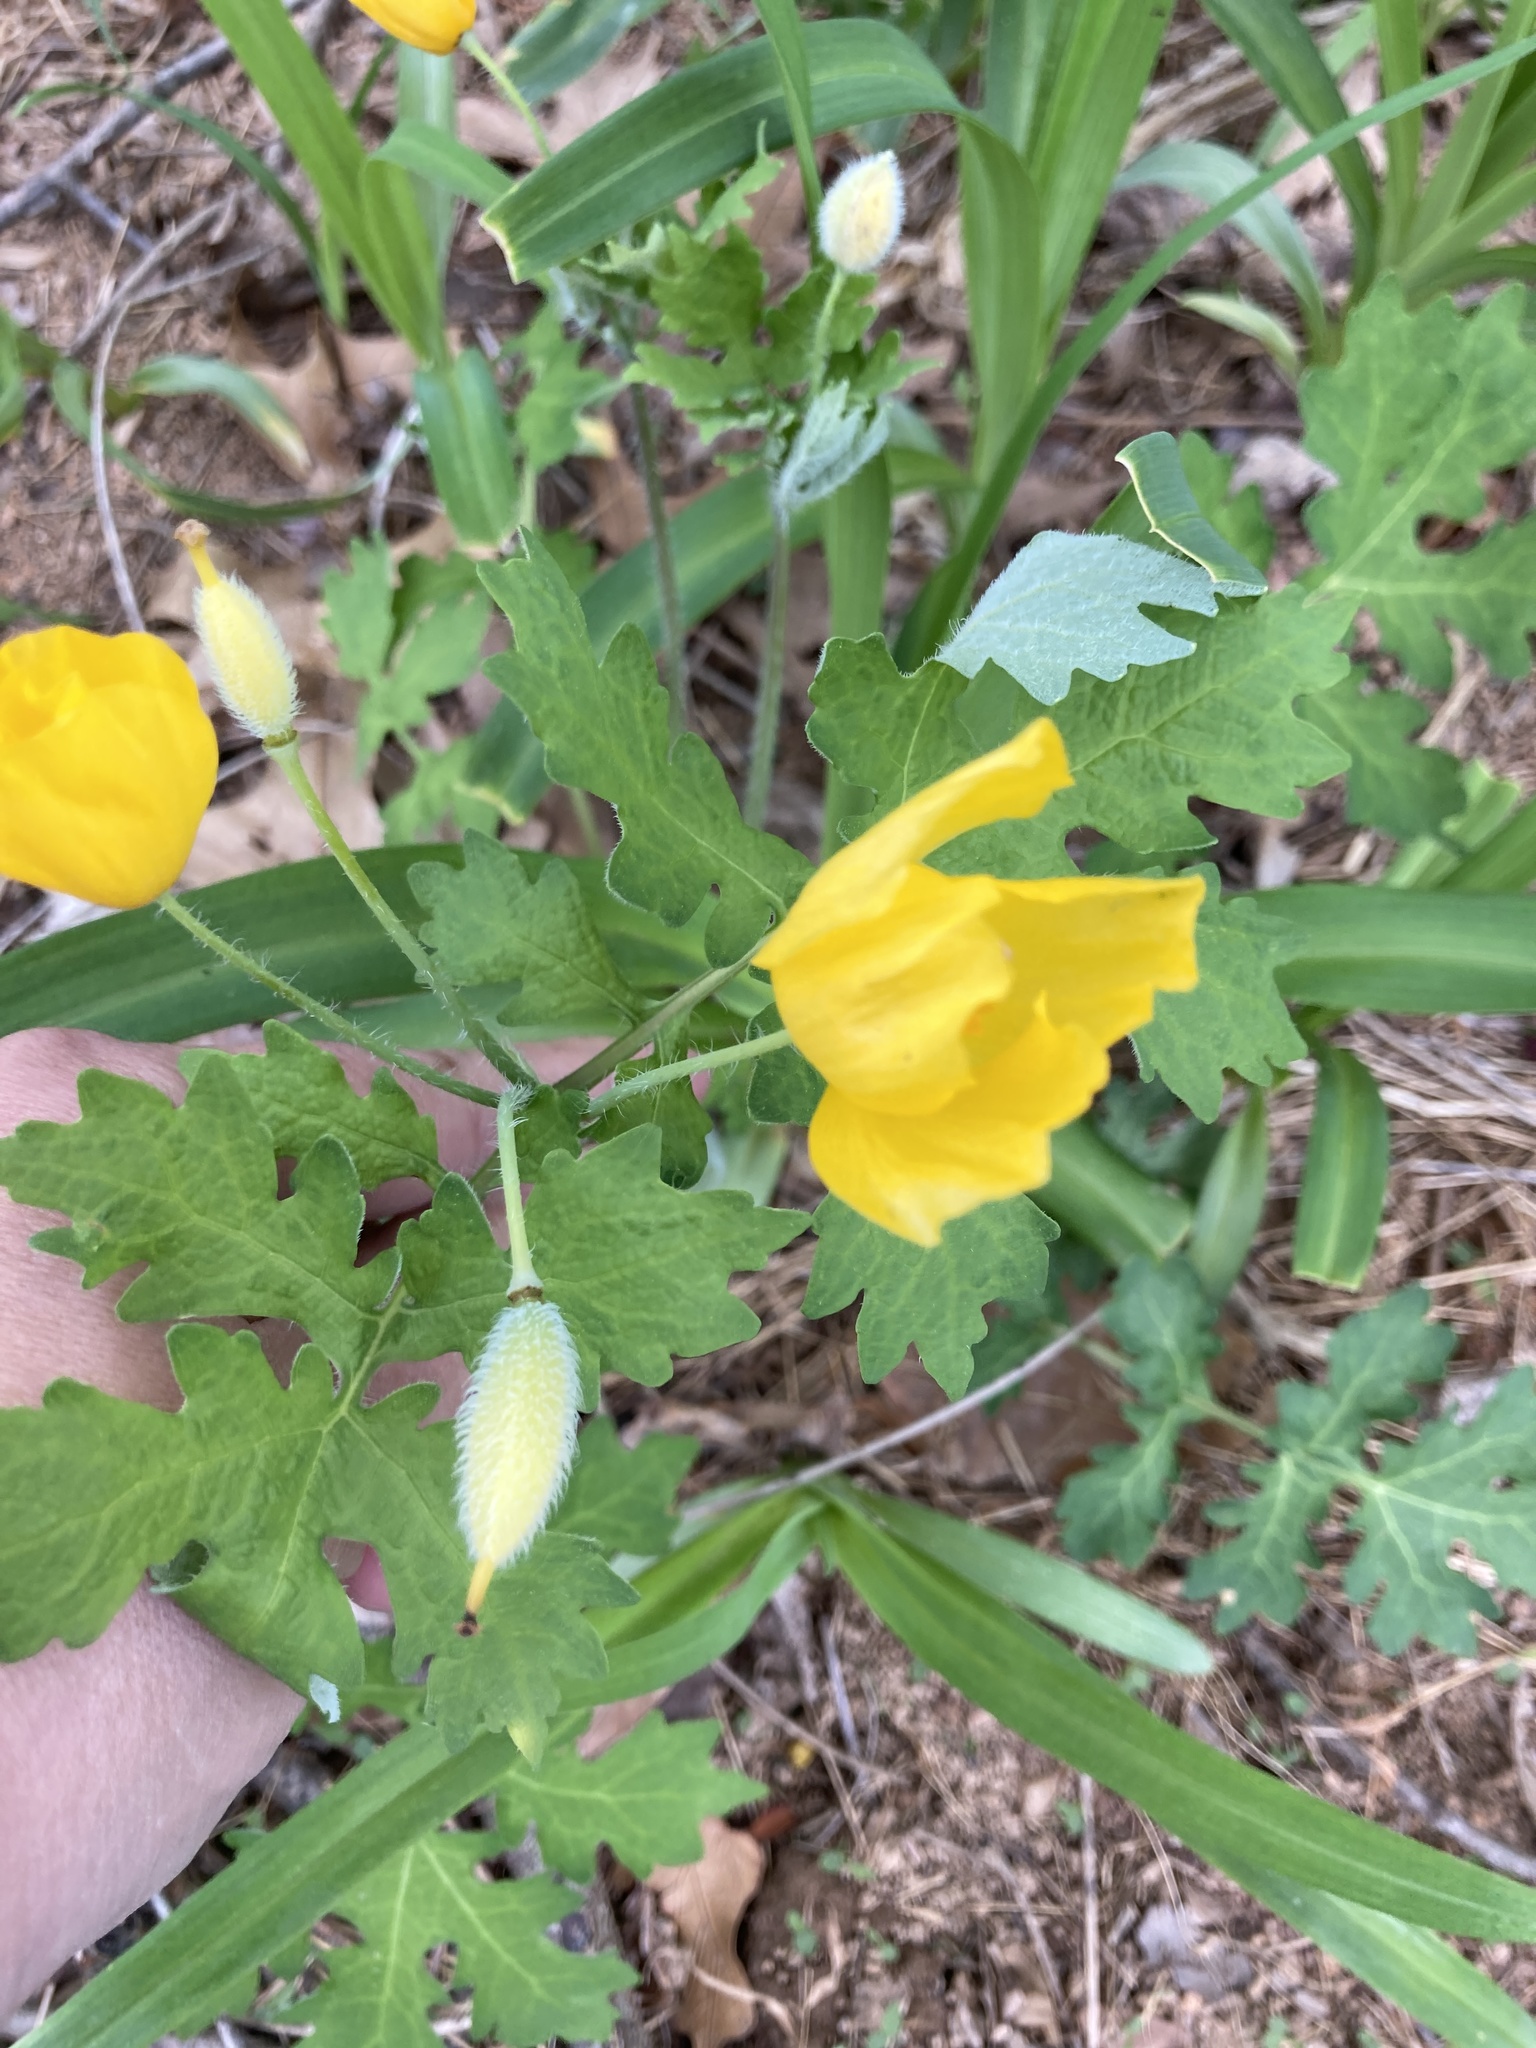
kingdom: Plantae
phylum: Tracheophyta
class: Magnoliopsida
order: Ranunculales
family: Papaveraceae
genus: Stylophorum
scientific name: Stylophorum diphyllum
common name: Celandine poppy
